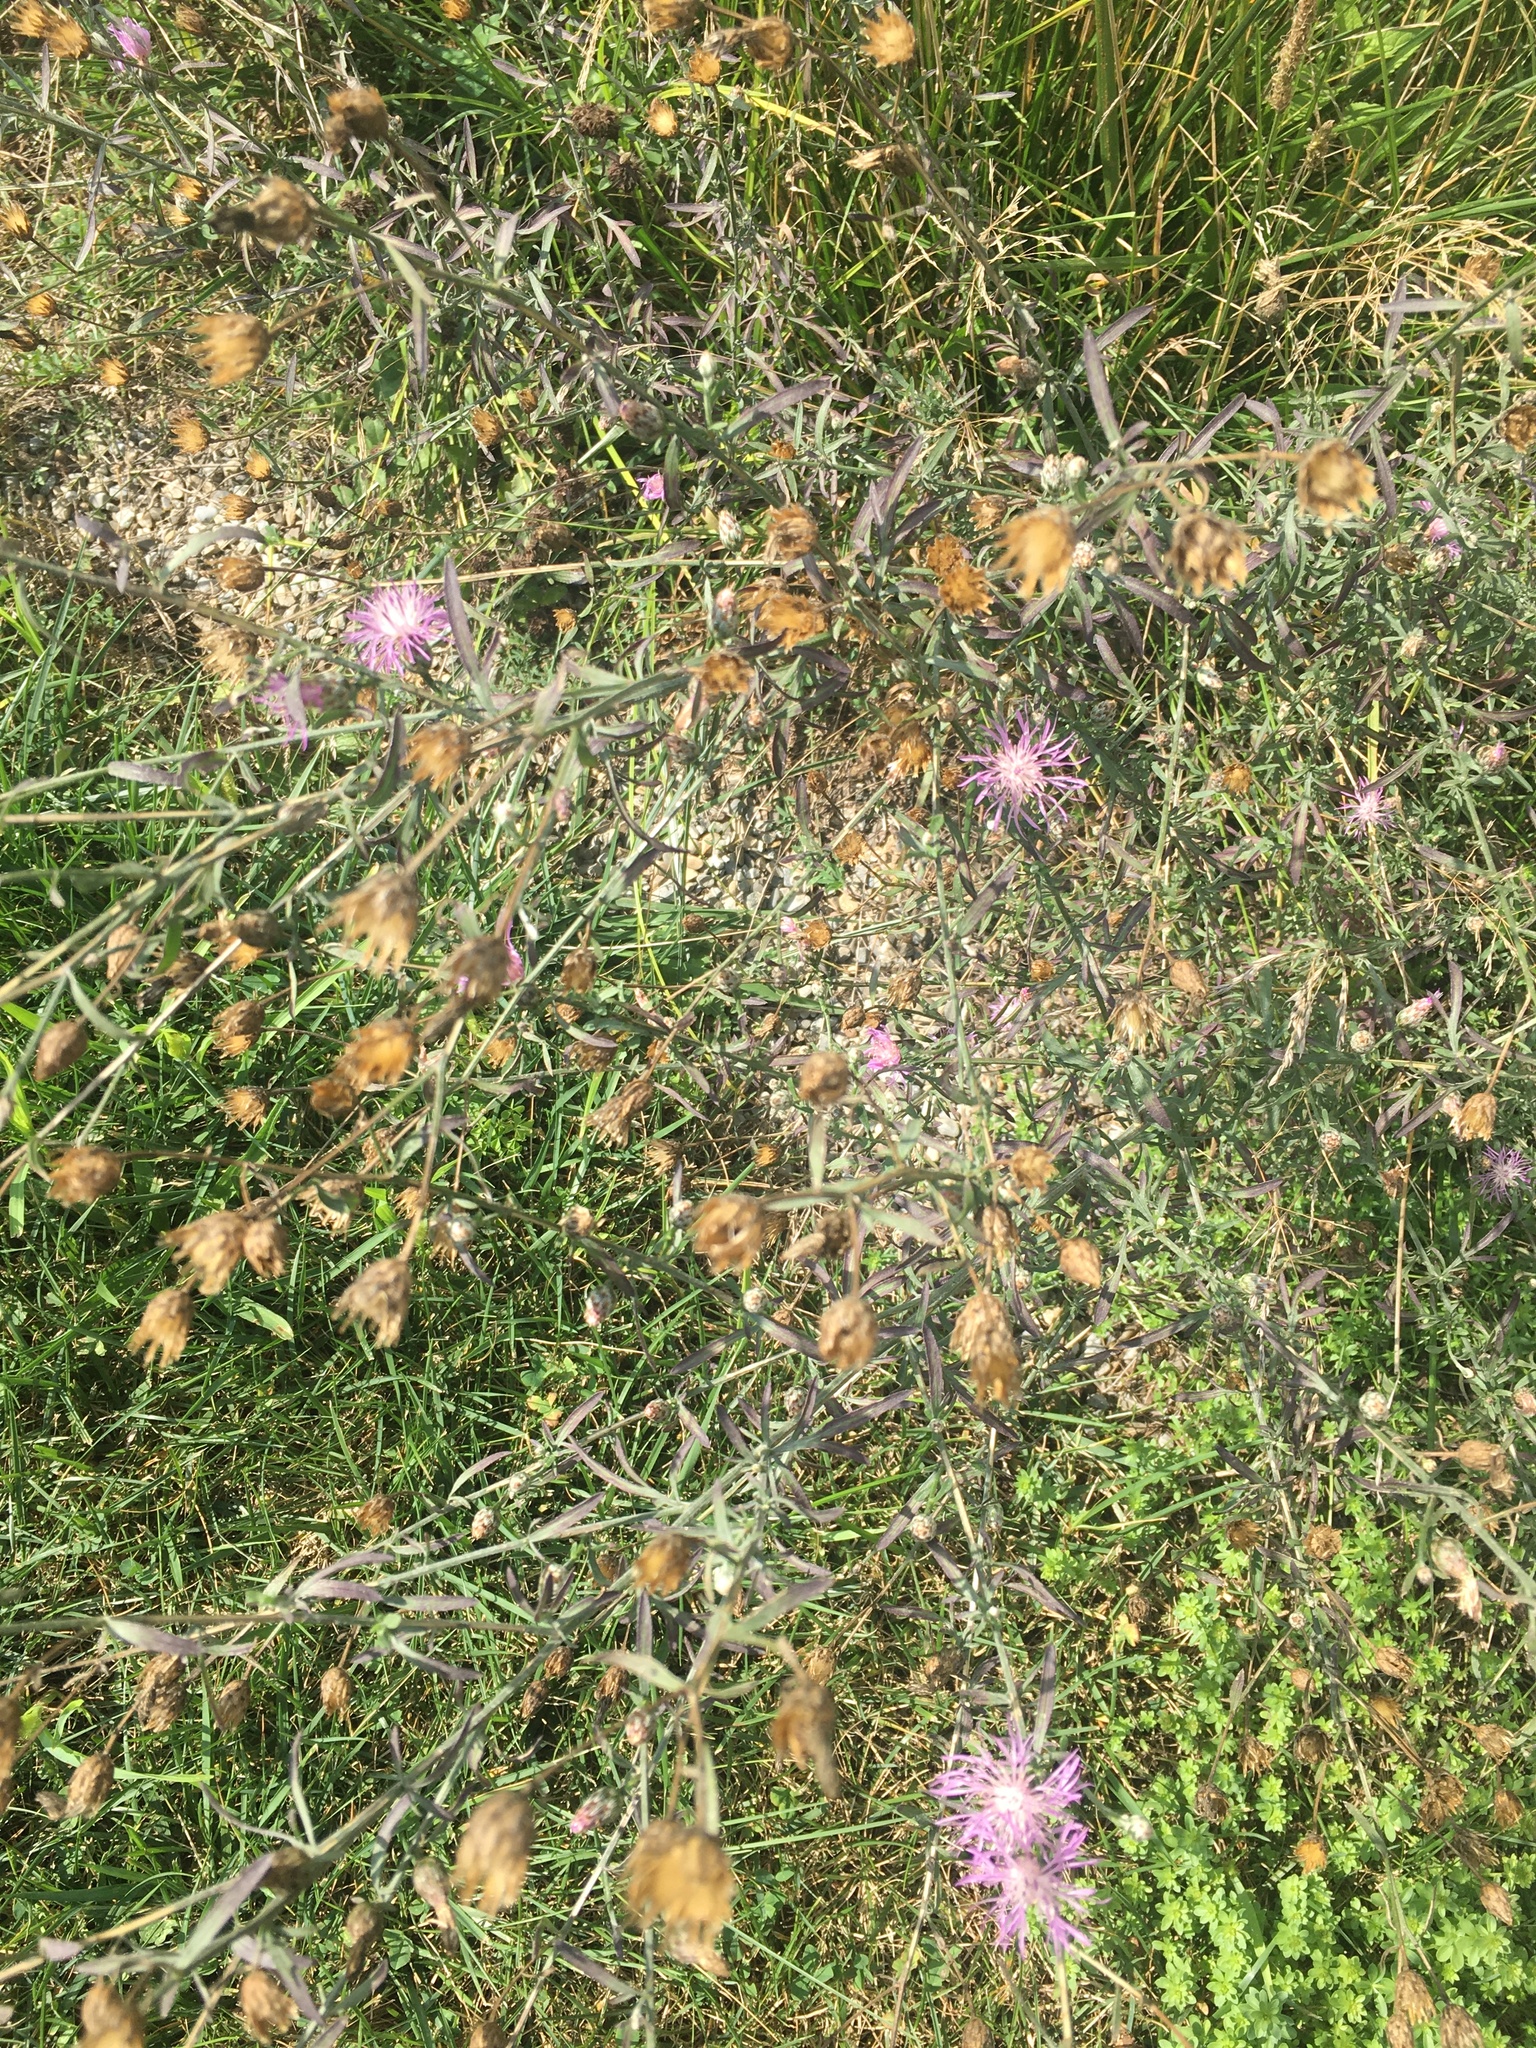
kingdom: Plantae
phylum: Tracheophyta
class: Magnoliopsida
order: Asterales
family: Asteraceae
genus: Centaurea
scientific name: Centaurea stoebe
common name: Spotted knapweed
